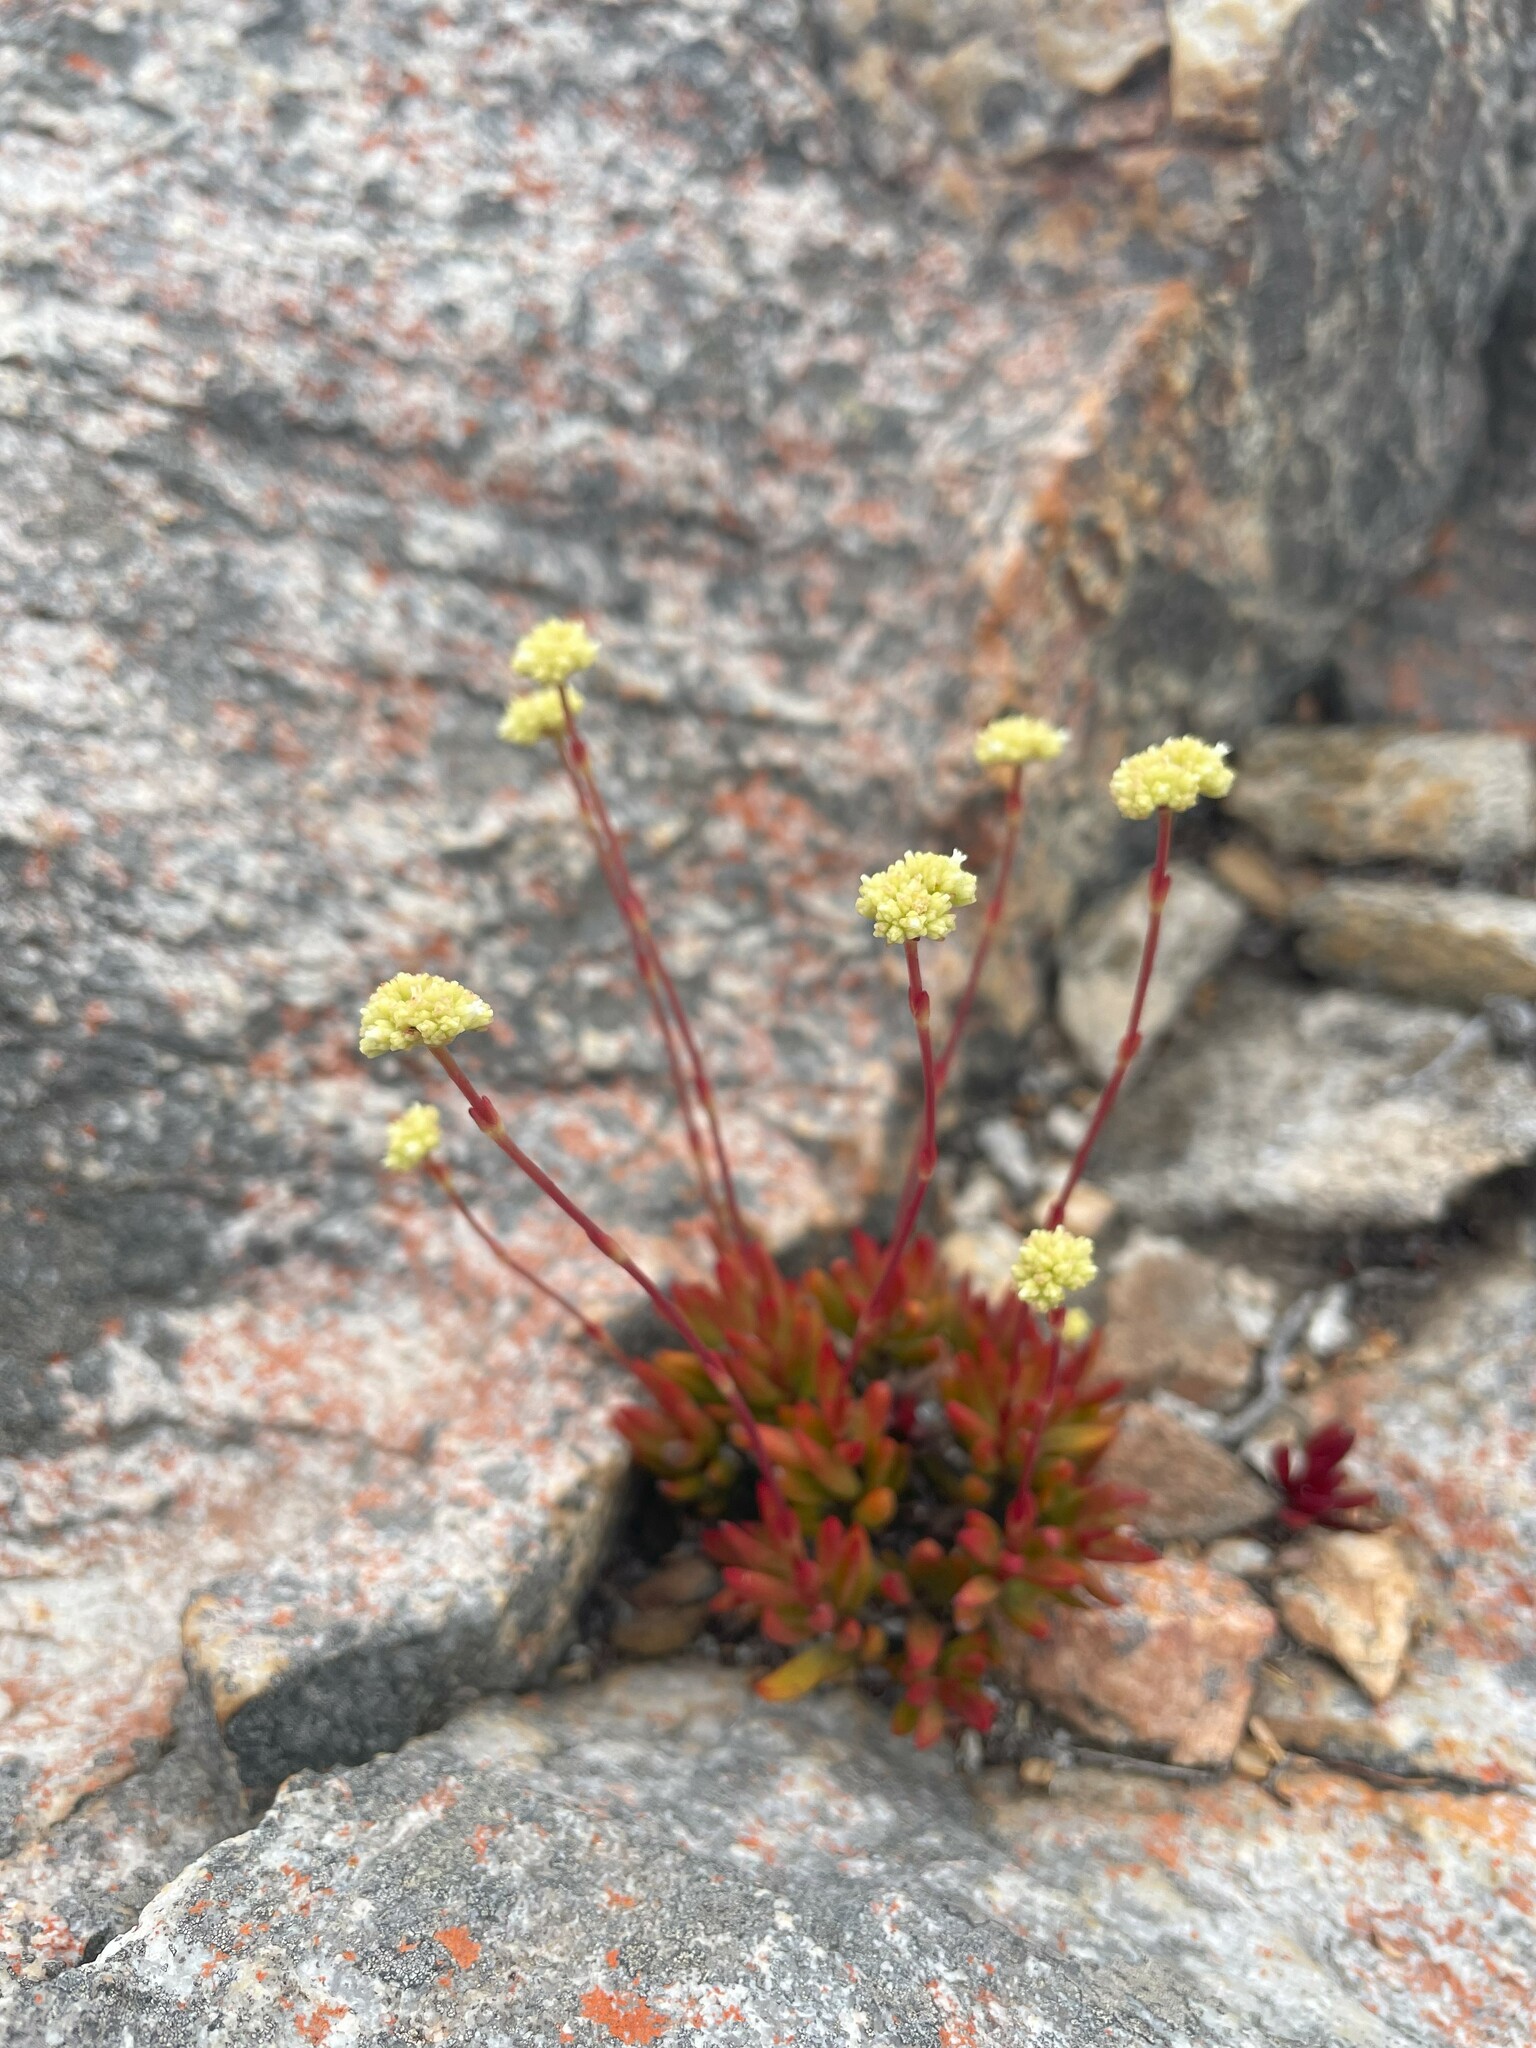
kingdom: Plantae
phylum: Tracheophyta
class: Magnoliopsida
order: Saxifragales
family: Crassulaceae
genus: Crassula
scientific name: Crassula atropurpurea
